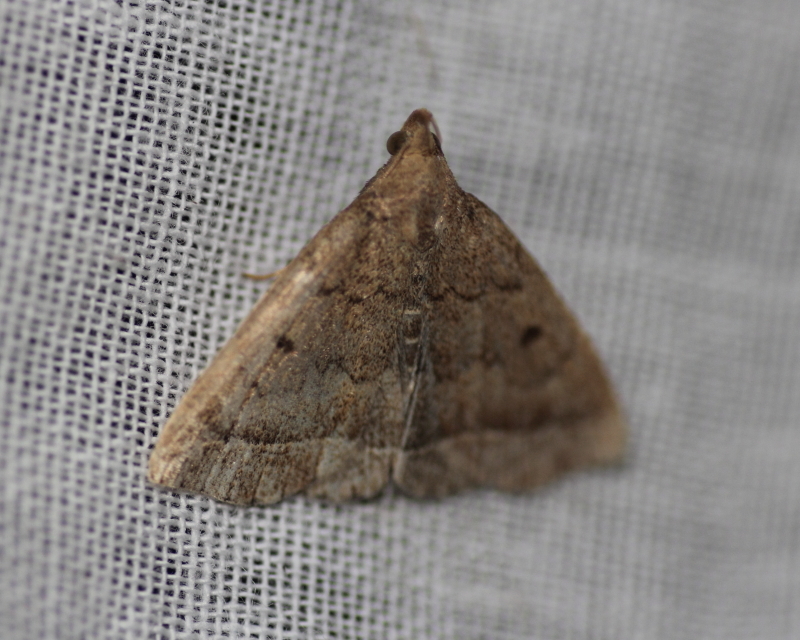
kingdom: Animalia
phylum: Arthropoda
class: Insecta
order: Lepidoptera
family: Erebidae
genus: Zanclognatha
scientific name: Zanclognatha jacchusalis
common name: Yellowish zanclognatha
